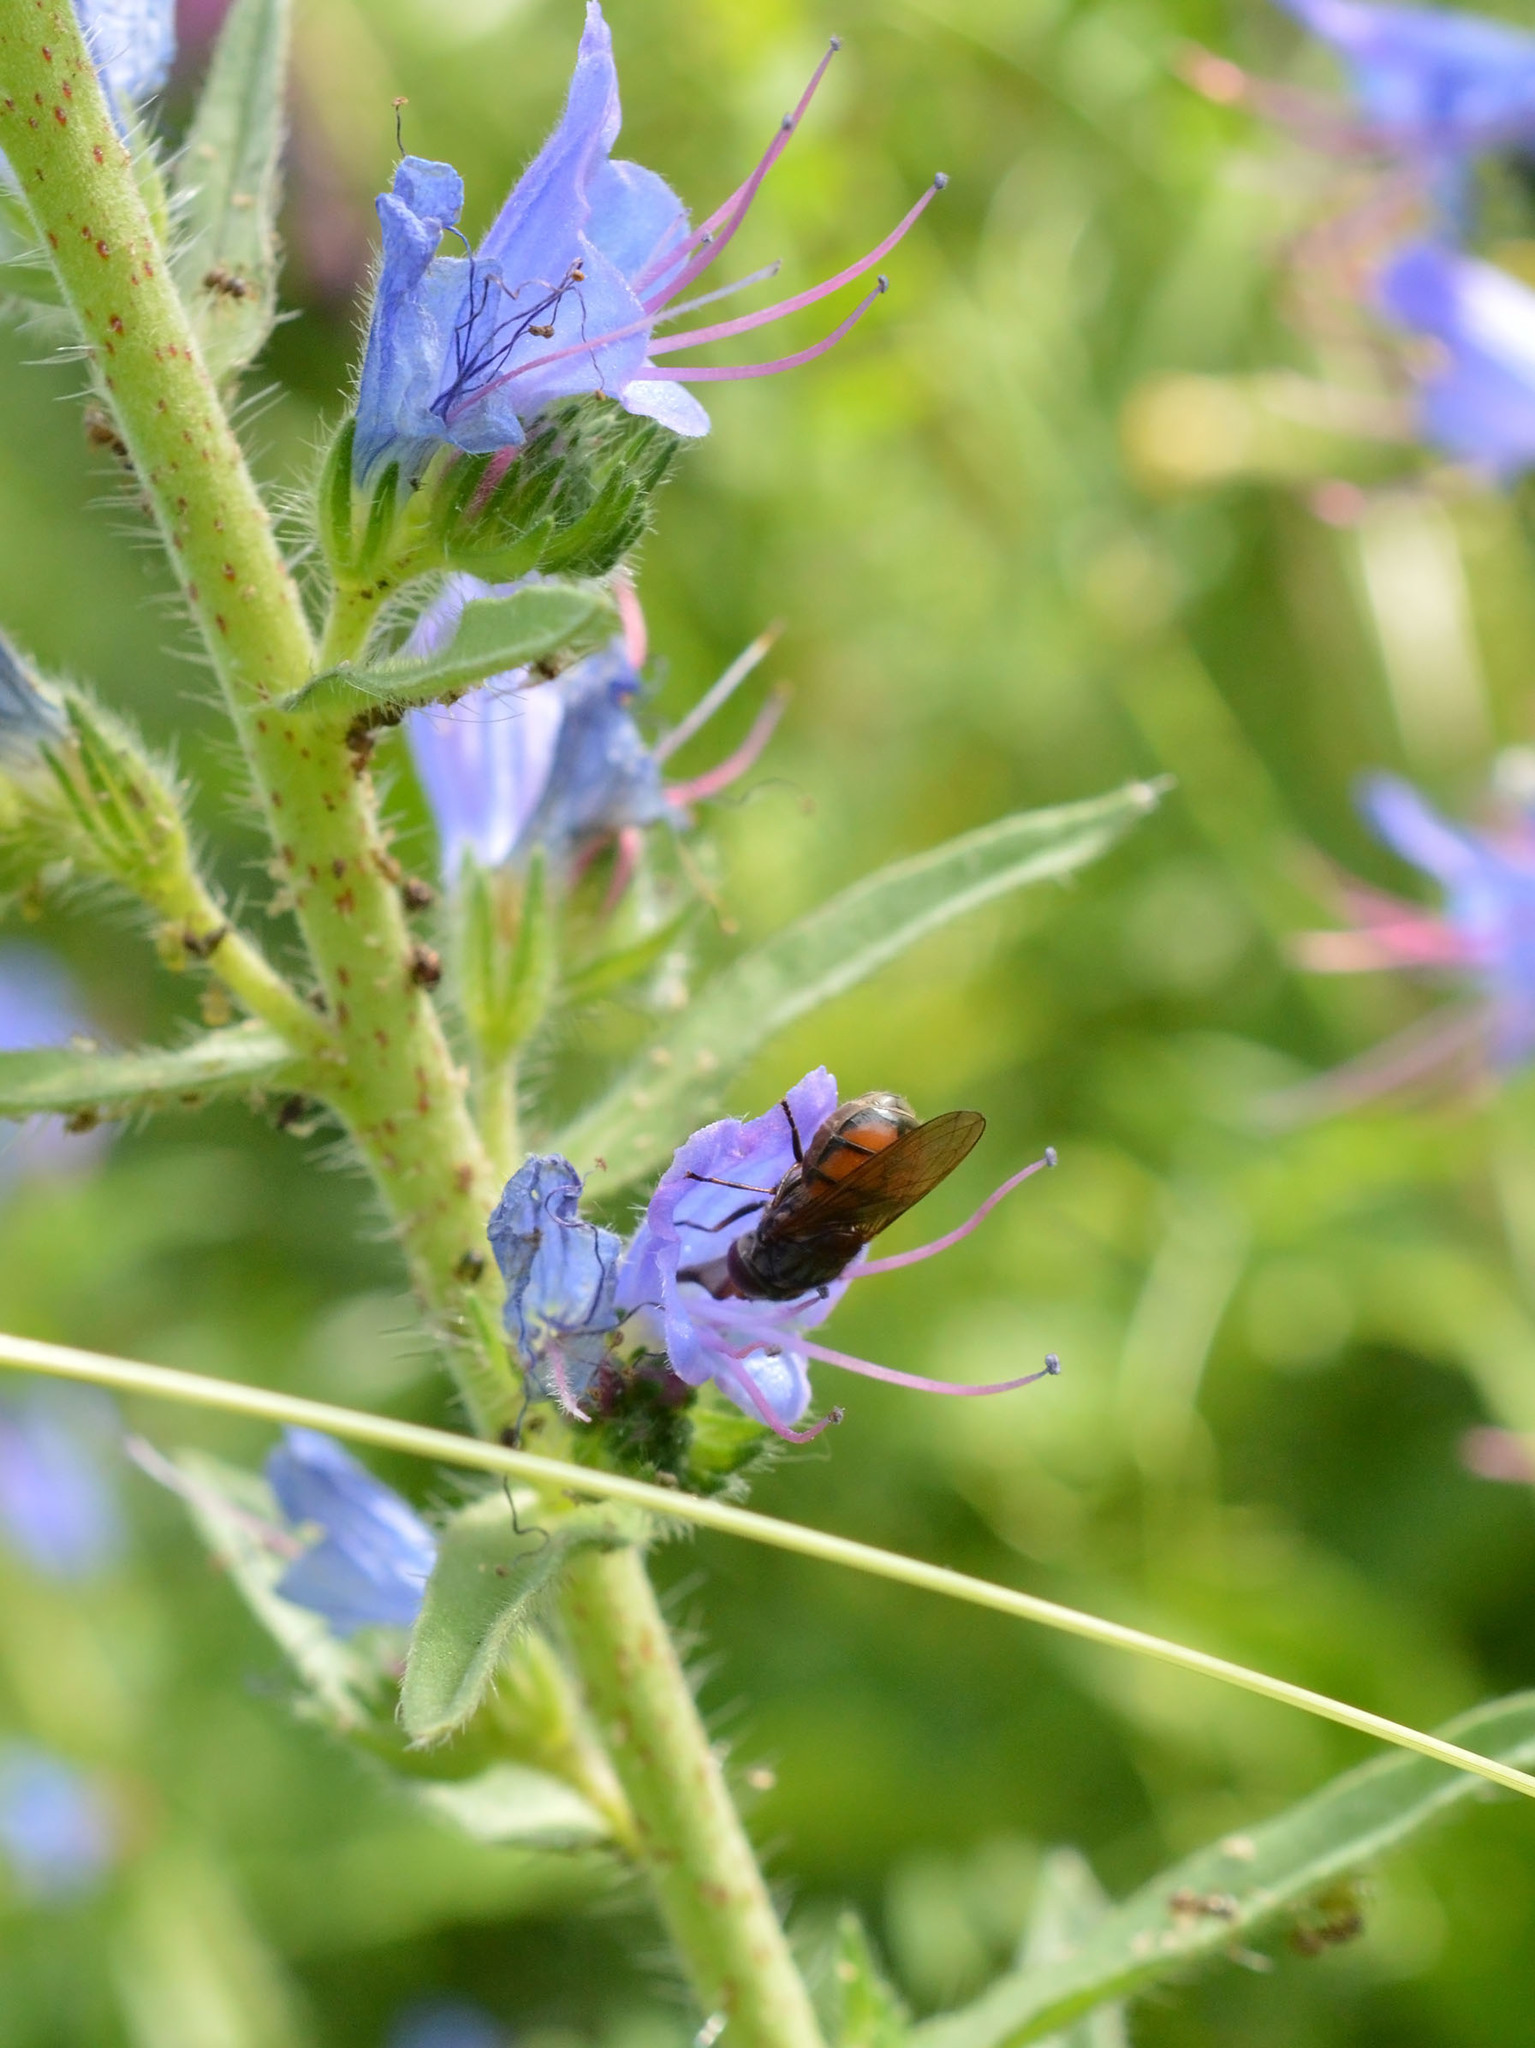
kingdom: Animalia
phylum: Arthropoda
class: Insecta
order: Diptera
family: Syrphidae
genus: Rhingia
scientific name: Rhingia campestris
